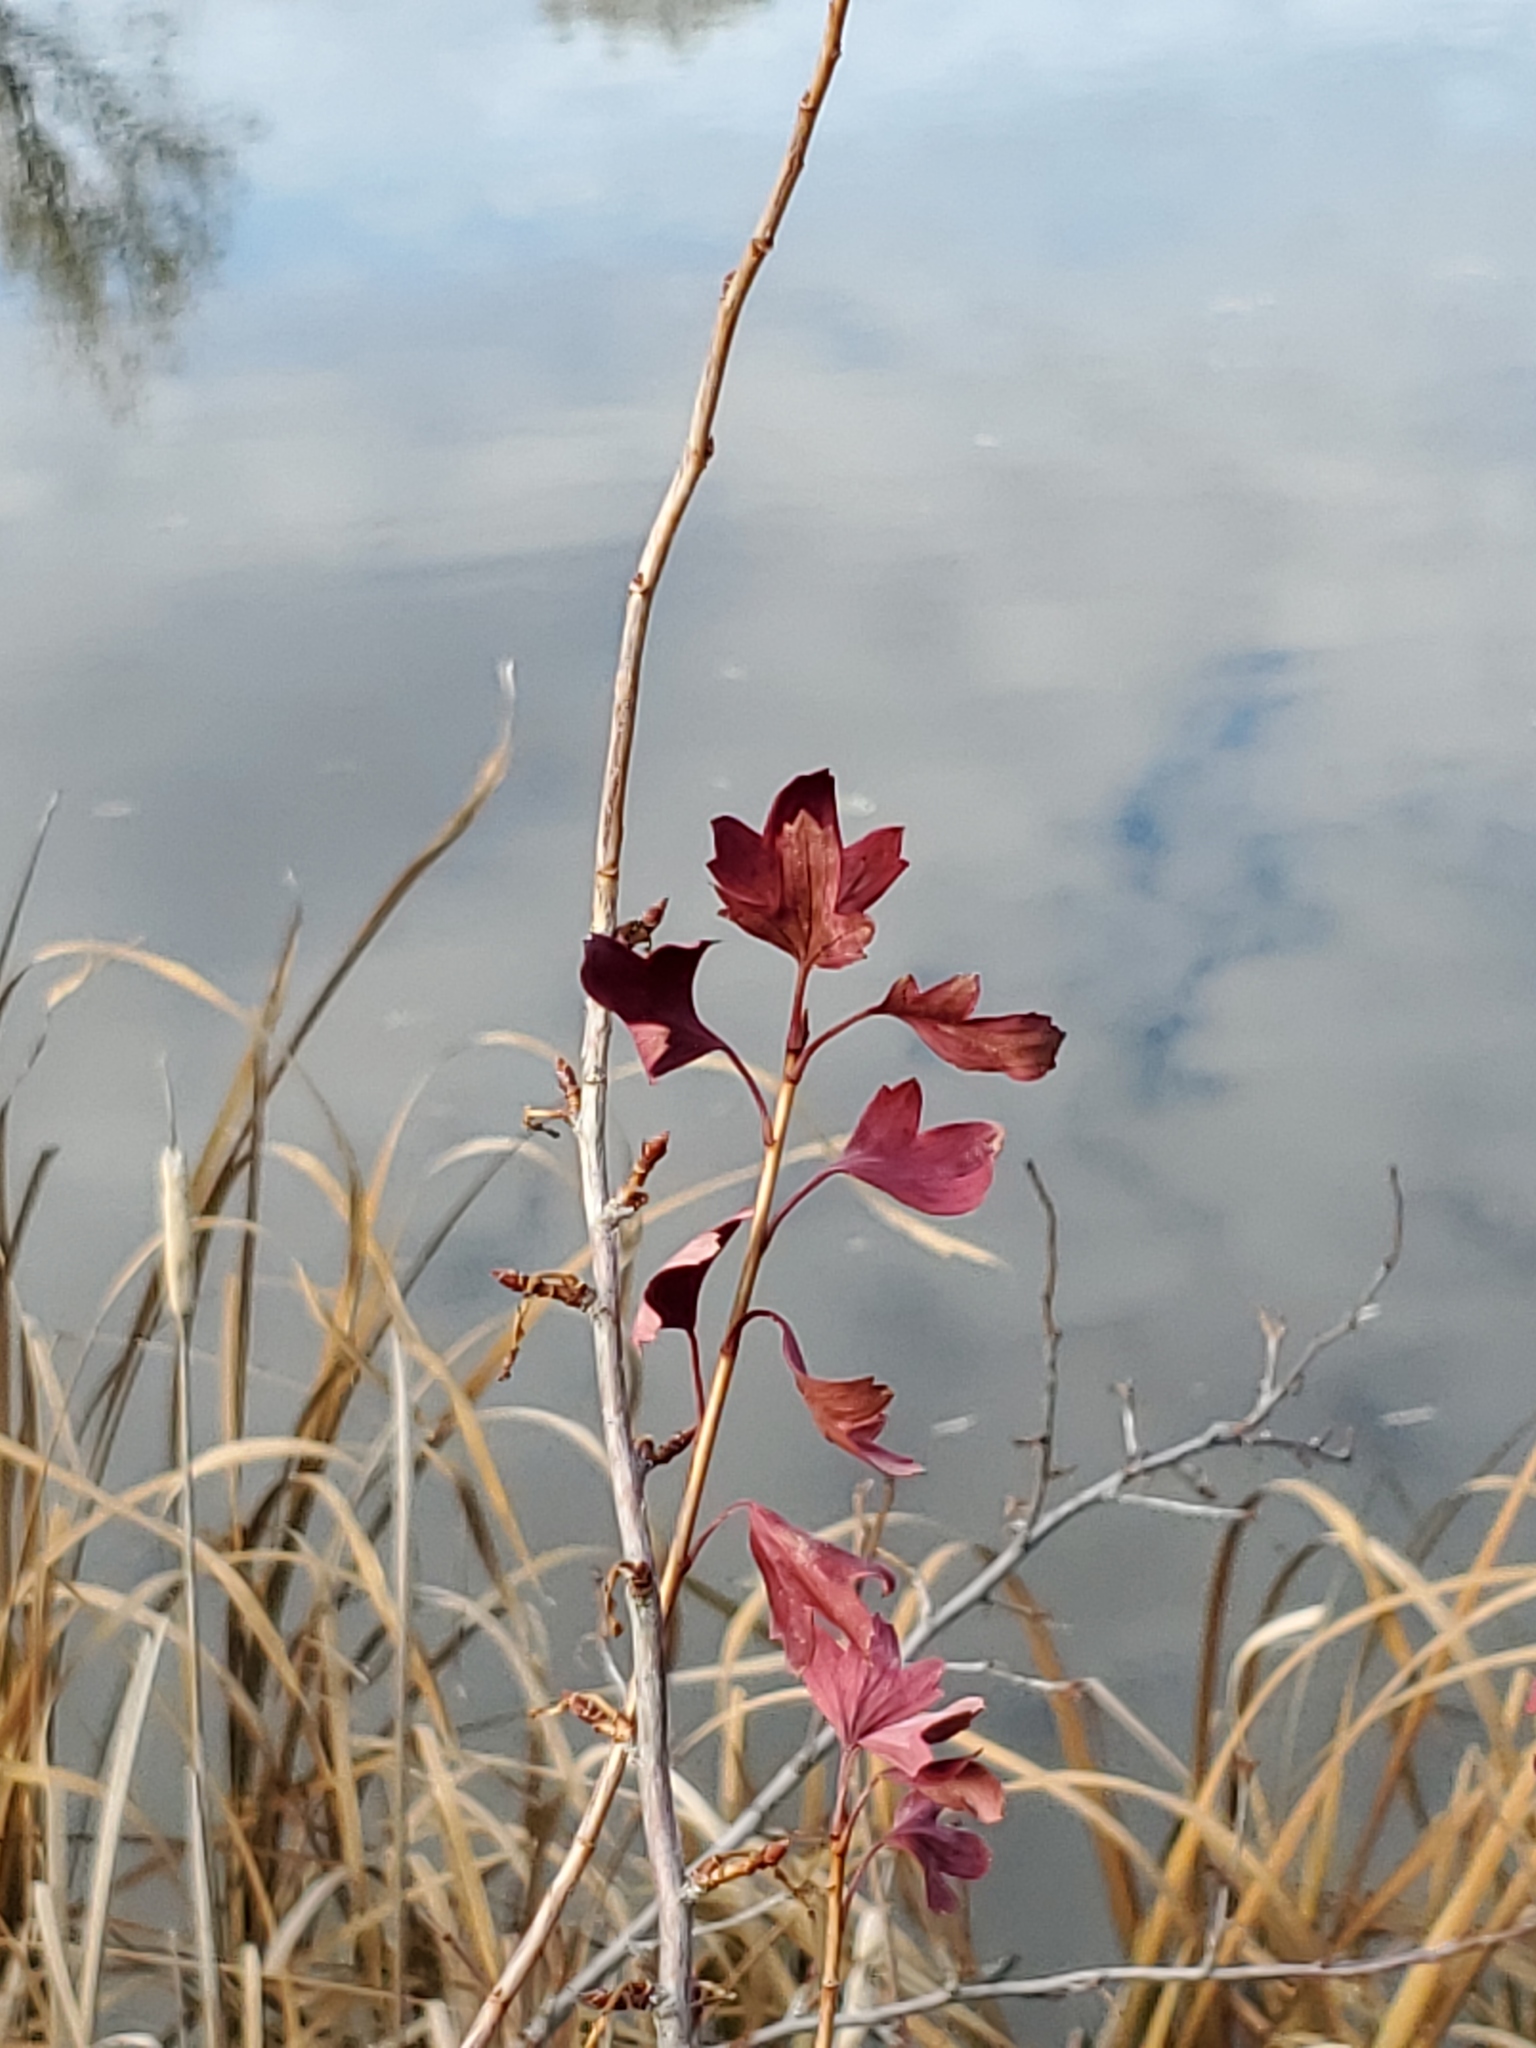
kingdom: Plantae
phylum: Tracheophyta
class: Magnoliopsida
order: Saxifragales
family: Grossulariaceae
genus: Ribes
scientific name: Ribes aureum
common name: Golden currant
